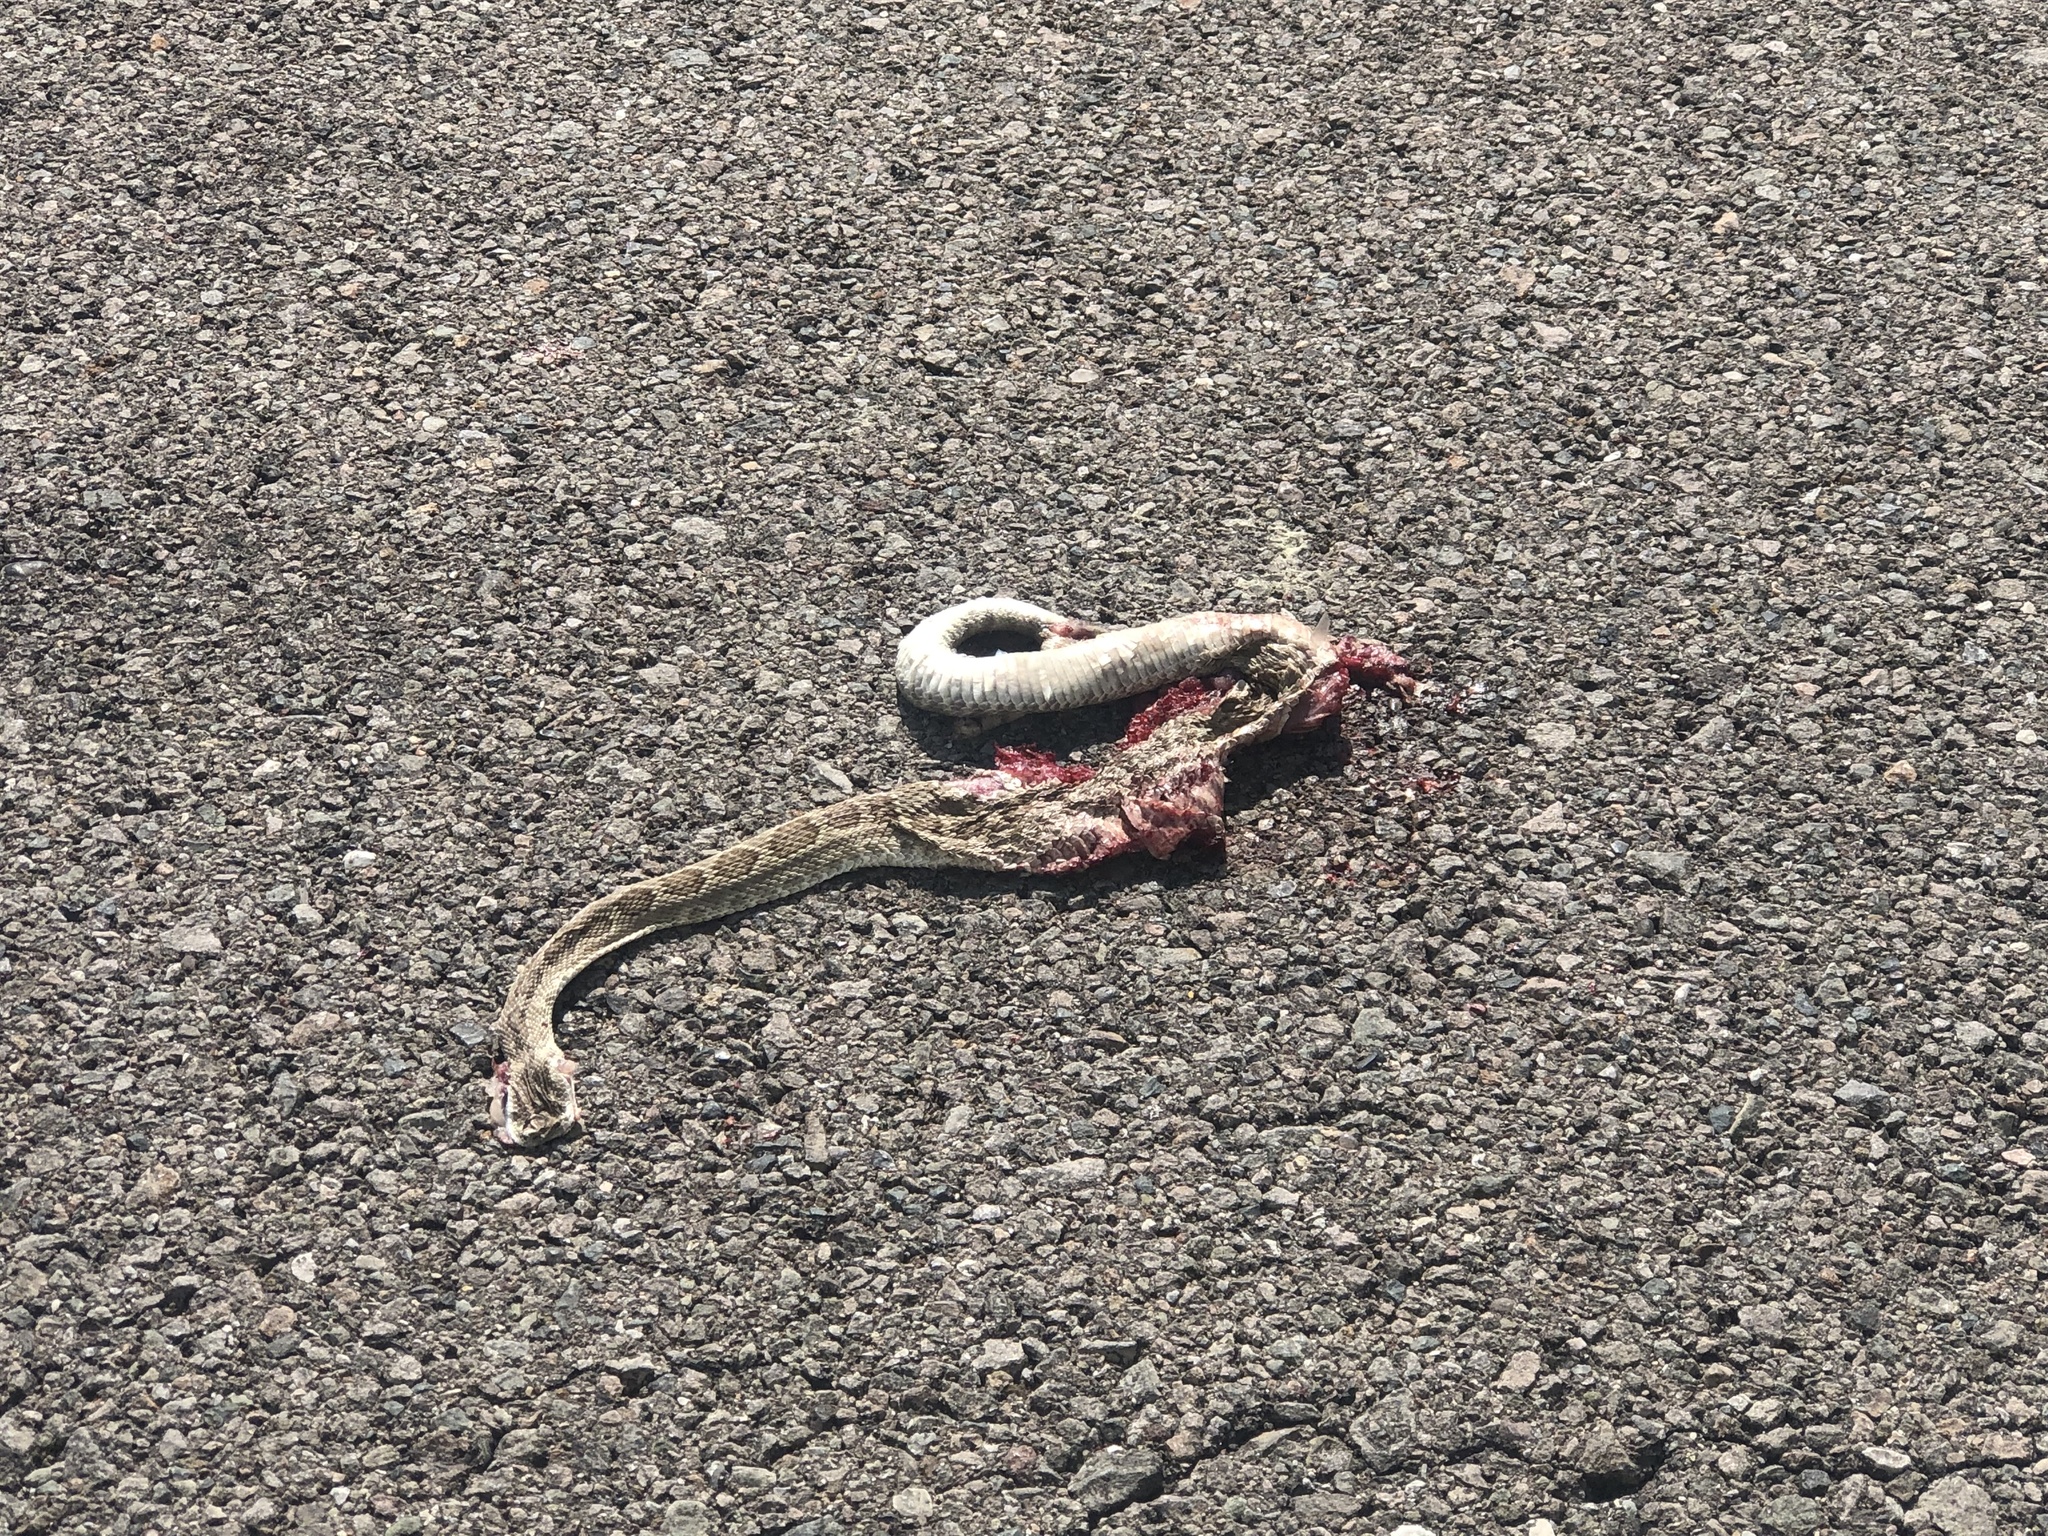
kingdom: Animalia
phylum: Chordata
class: Squamata
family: Viperidae
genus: Crotalus
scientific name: Crotalus
